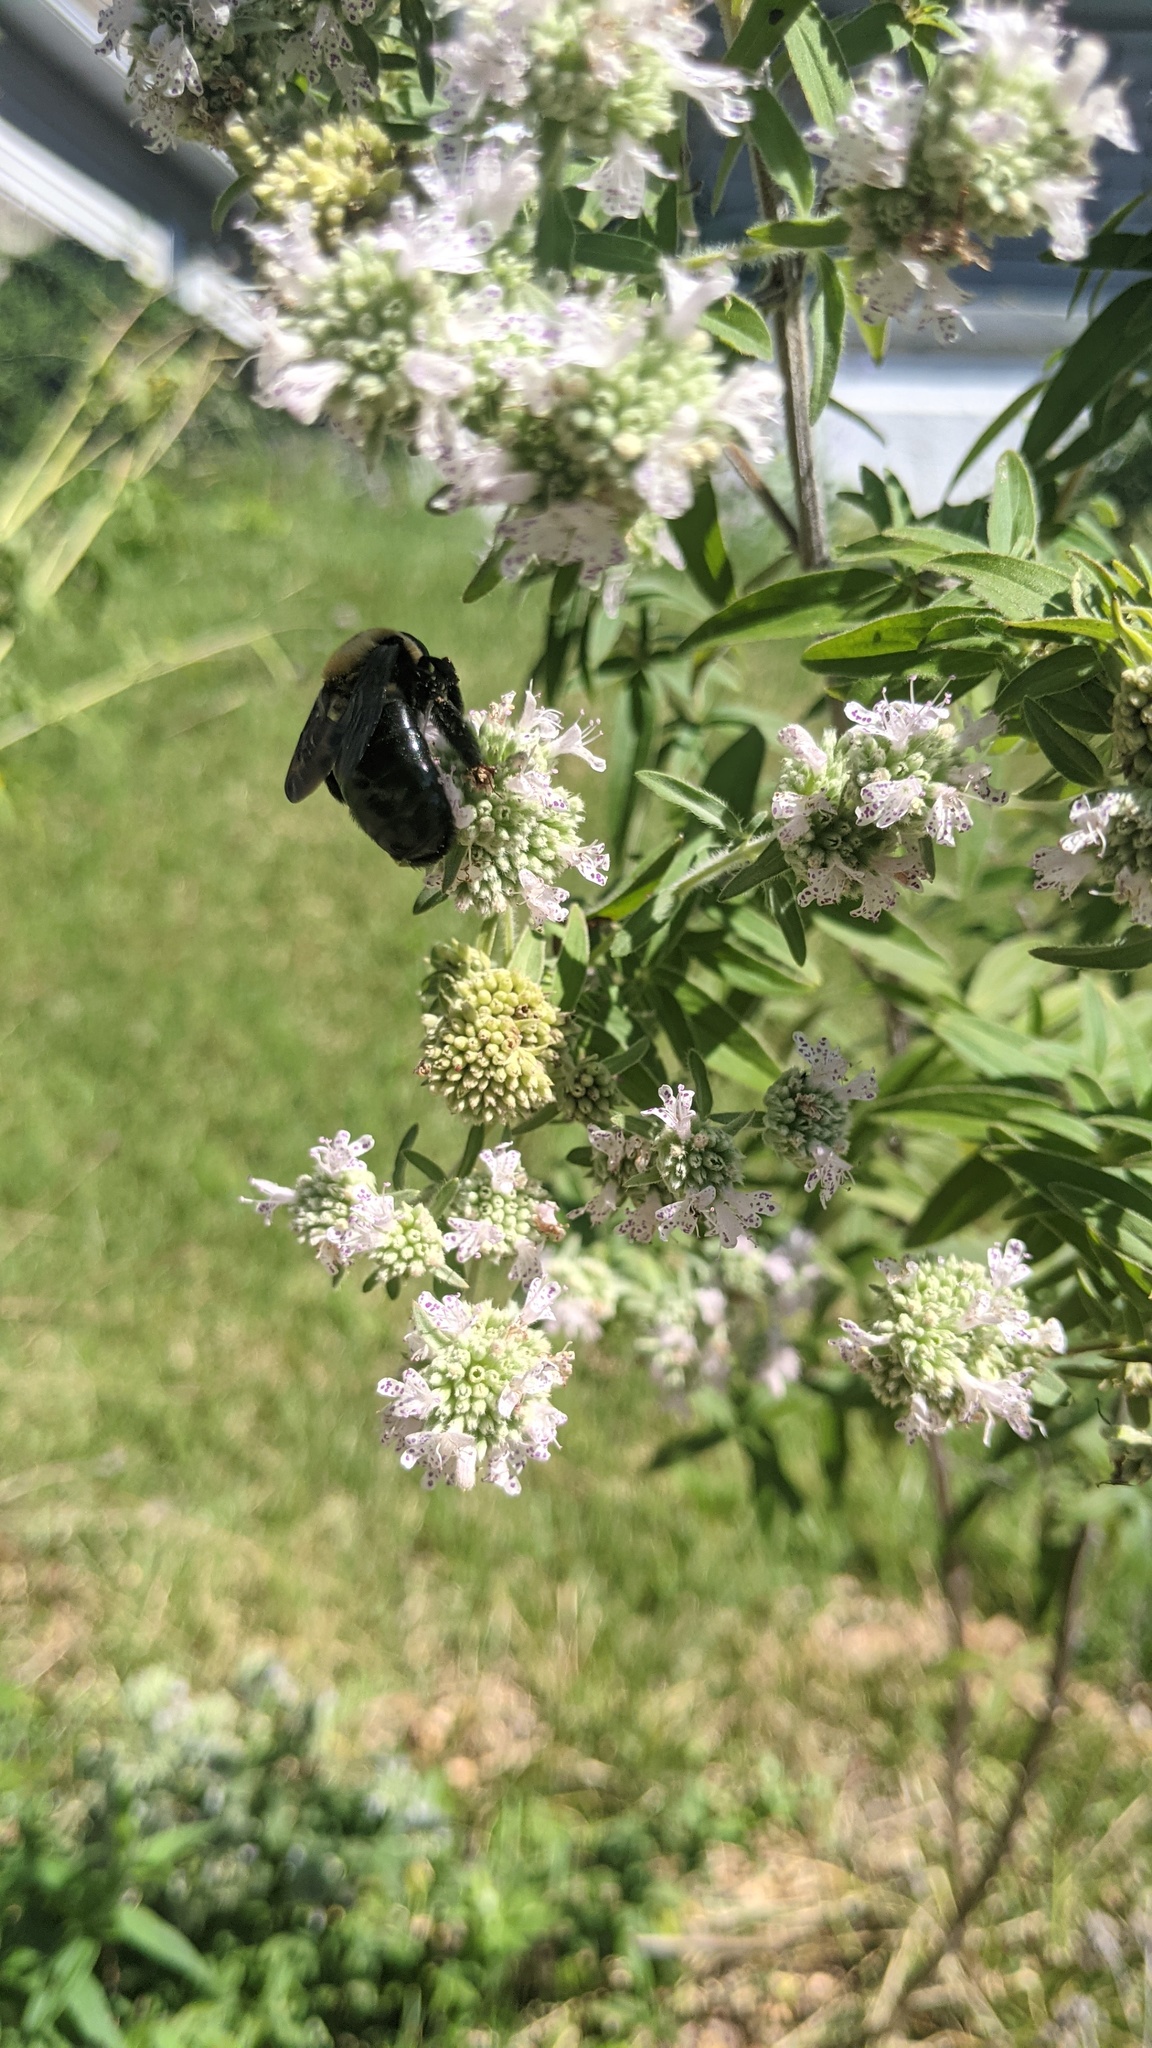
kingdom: Animalia
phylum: Arthropoda
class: Insecta
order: Hymenoptera
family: Apidae
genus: Xylocopa
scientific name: Xylocopa virginica
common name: Carpenter bee
